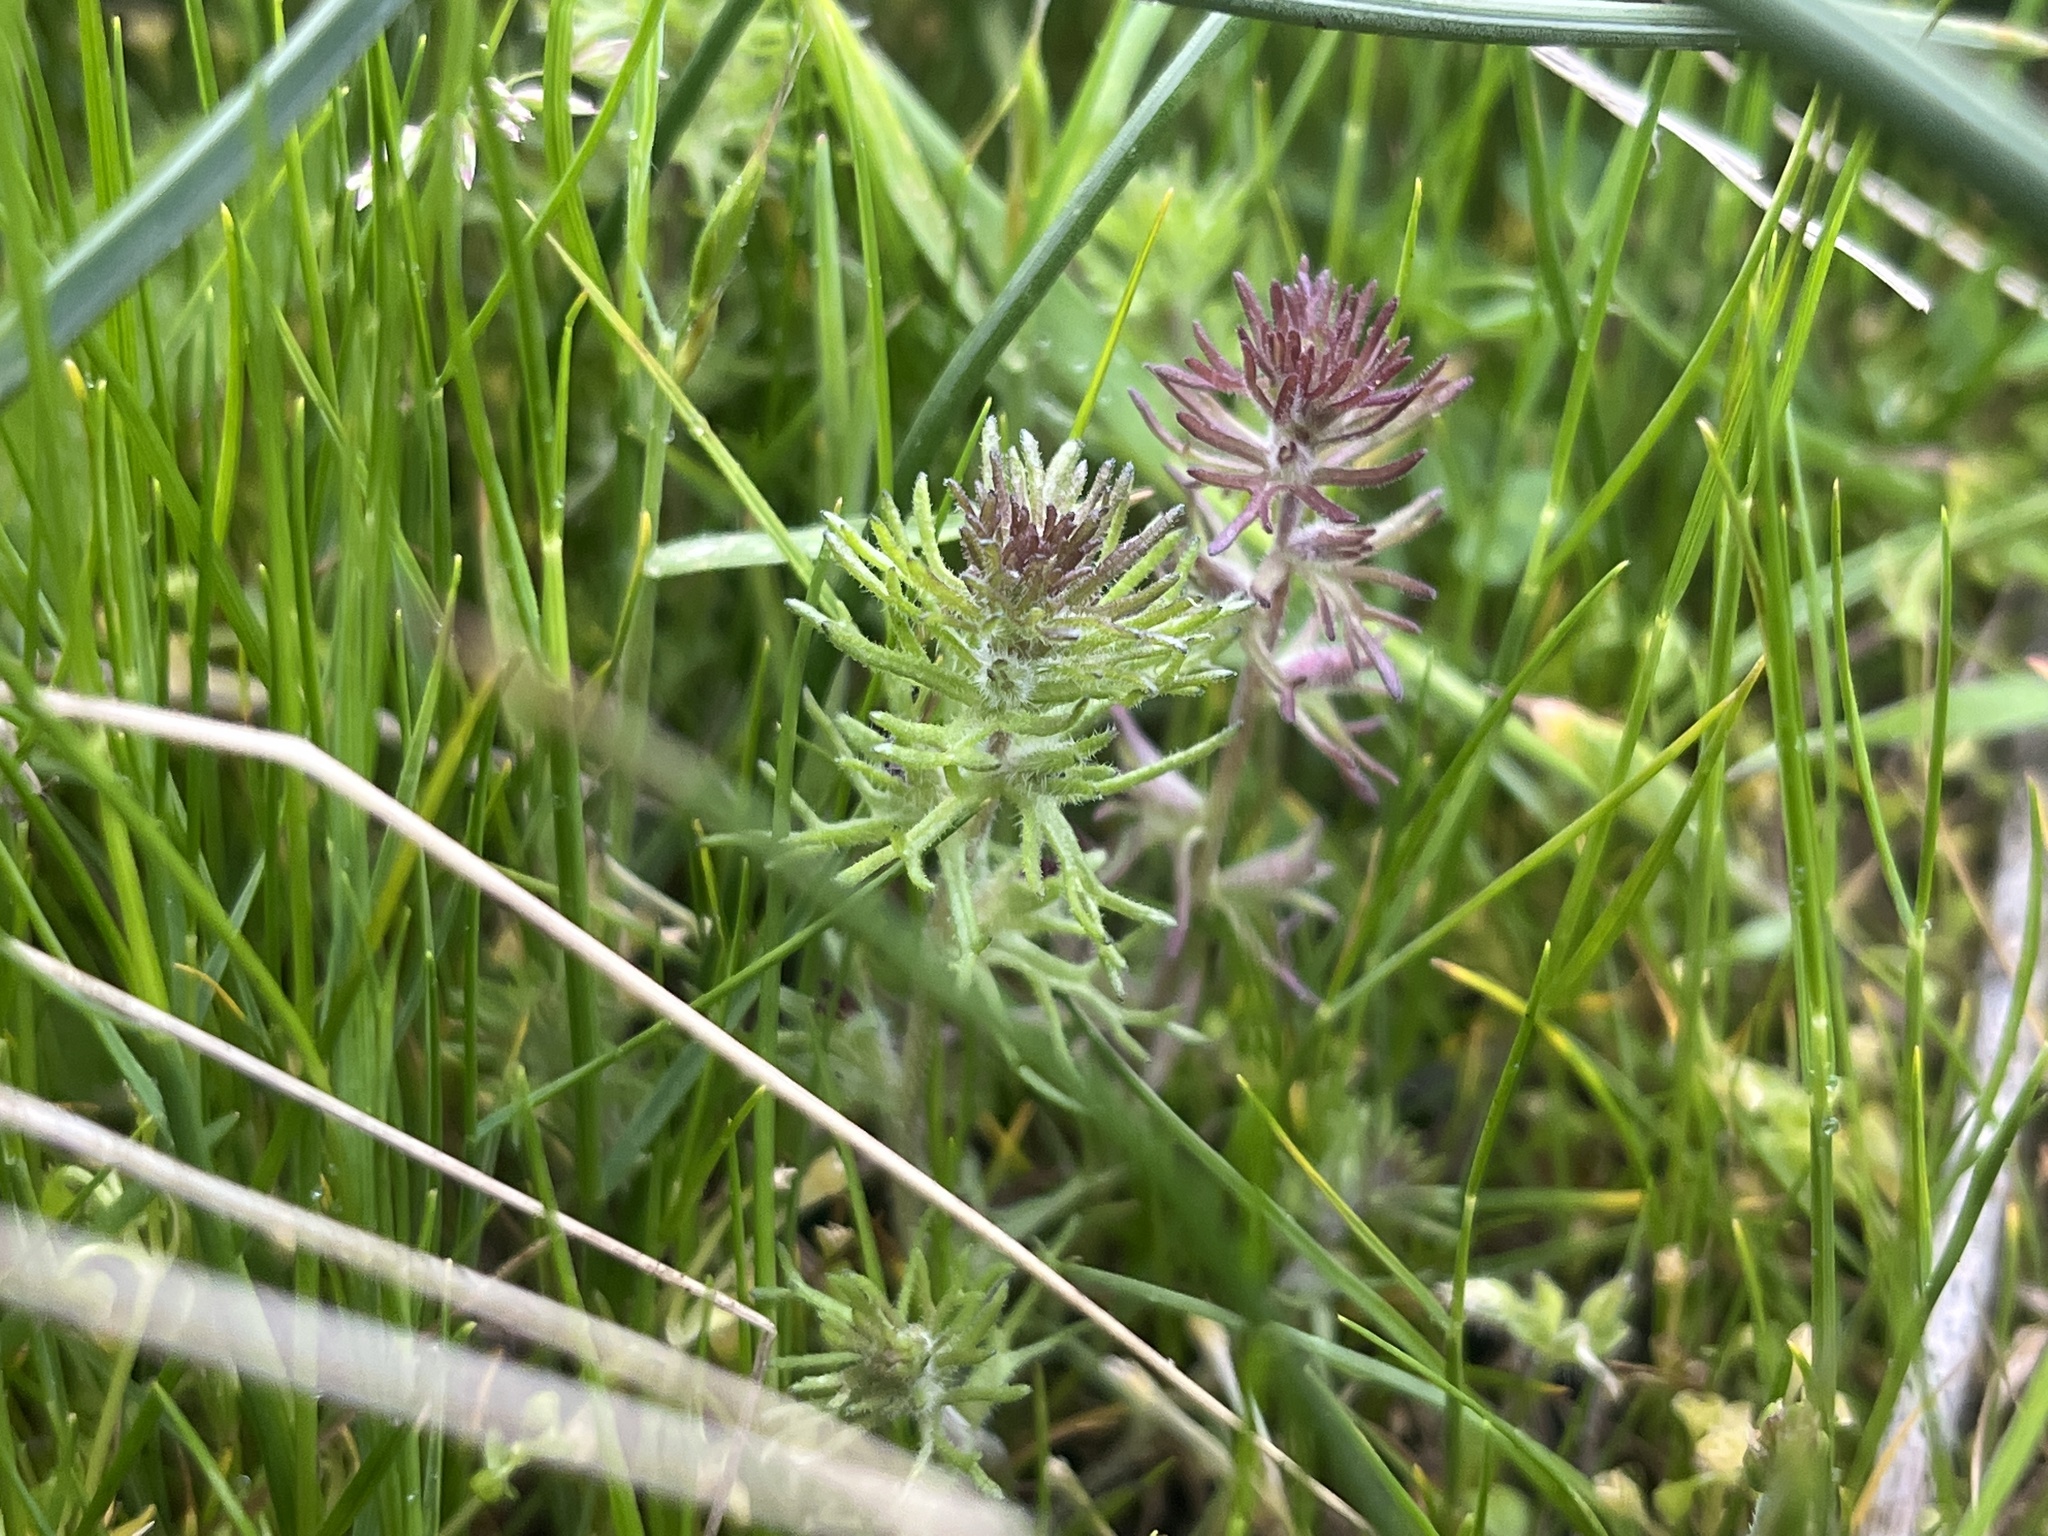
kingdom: Plantae
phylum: Tracheophyta
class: Magnoliopsida
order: Lamiales
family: Orobanchaceae
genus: Triphysaria
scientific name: Triphysaria pusilla
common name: Dwarf false owl-clover
